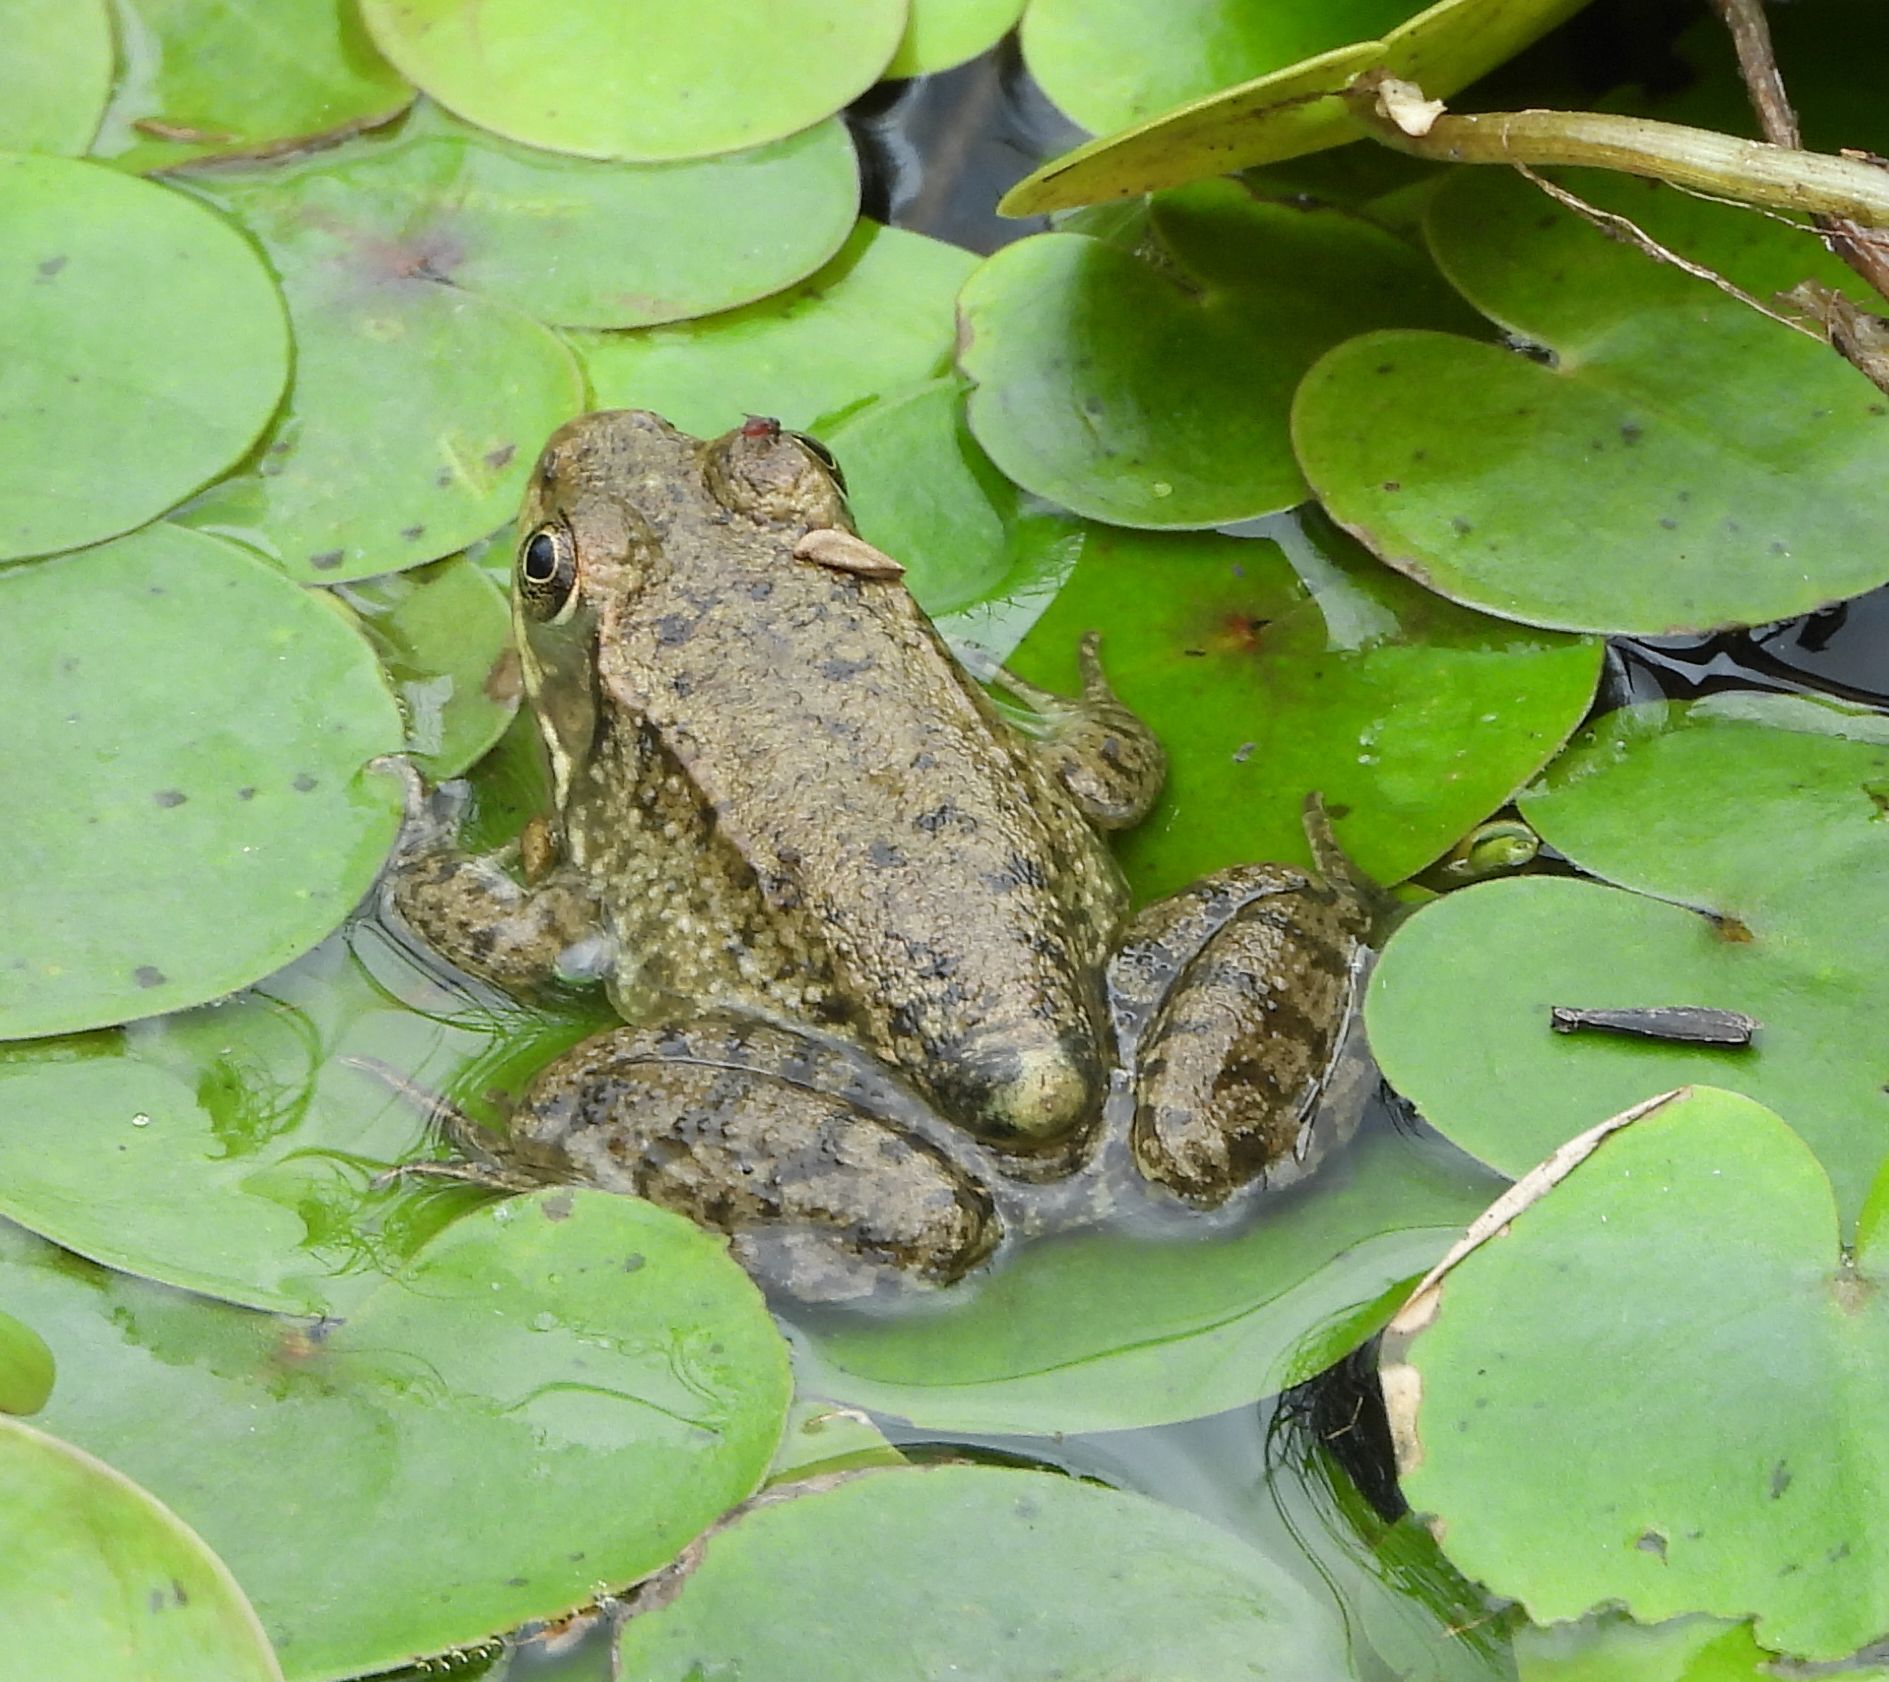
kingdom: Animalia
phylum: Chordata
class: Amphibia
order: Anura
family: Ranidae
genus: Lithobates
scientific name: Lithobates clamitans
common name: Green frog
